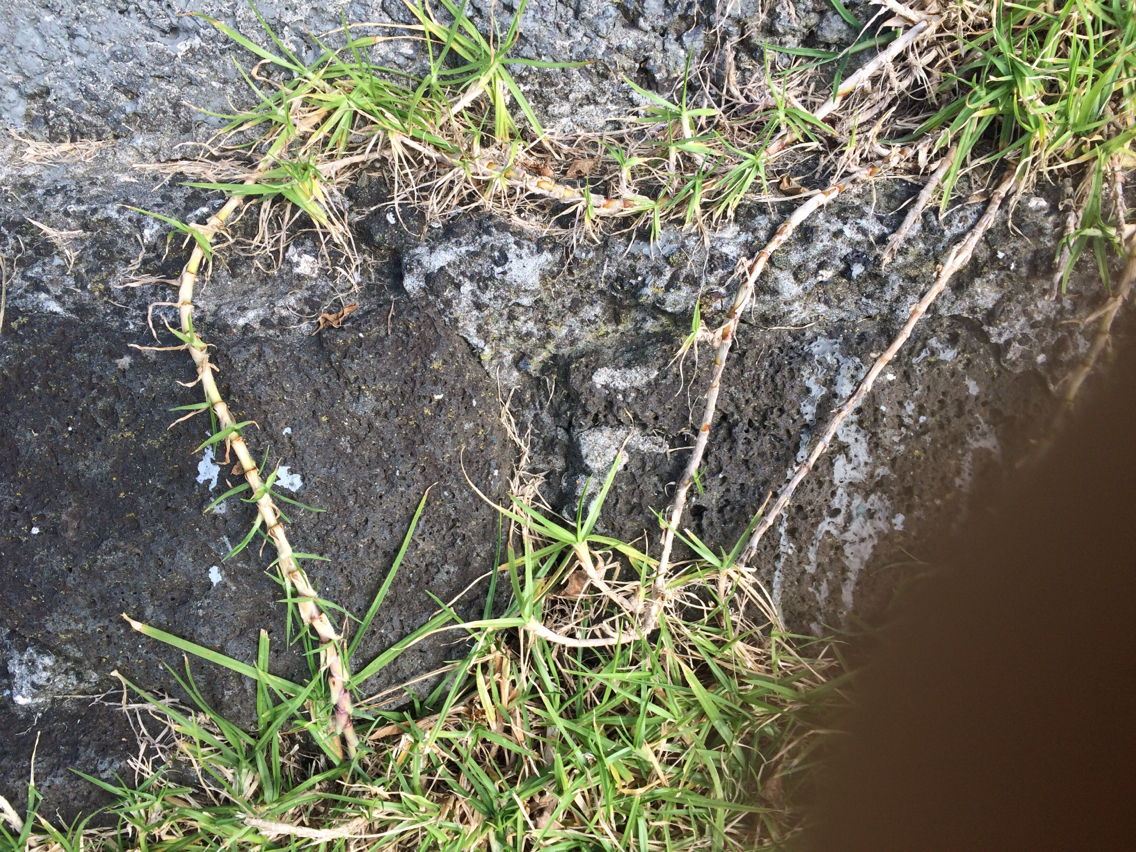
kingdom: Plantae
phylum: Tracheophyta
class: Liliopsida
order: Poales
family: Poaceae
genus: Cenchrus
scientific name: Cenchrus clandestinus
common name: Kikuyugrass
